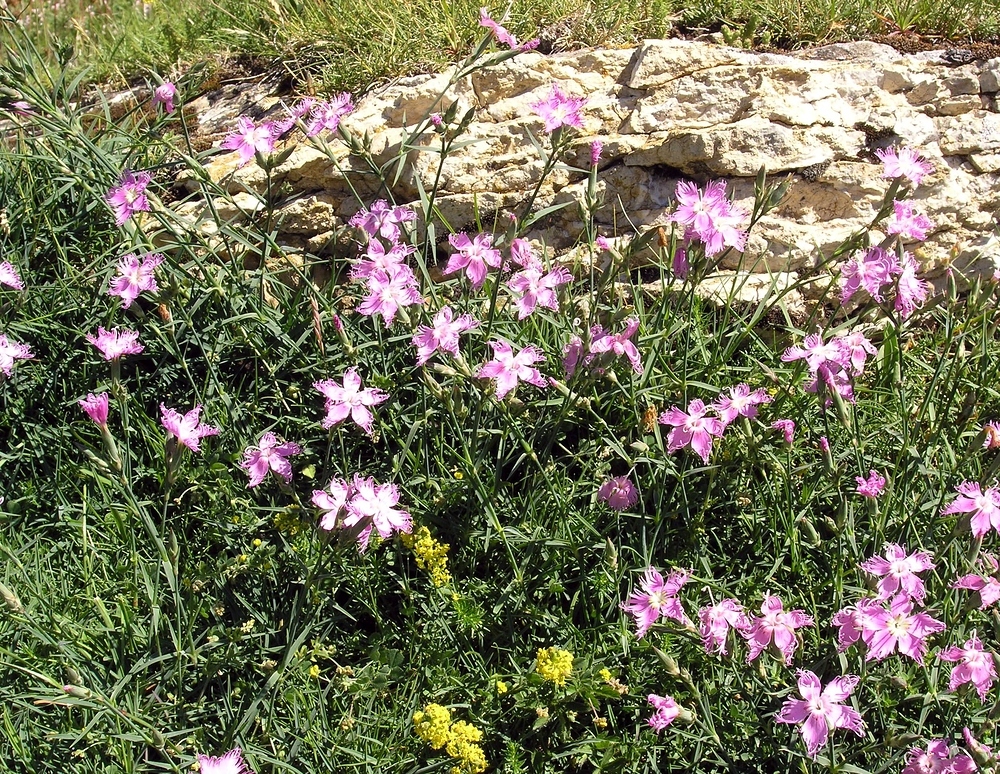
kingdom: Plantae
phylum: Tracheophyta
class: Magnoliopsida
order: Caryophyllales
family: Caryophyllaceae
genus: Dianthus
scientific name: Dianthus hyssopifolius
